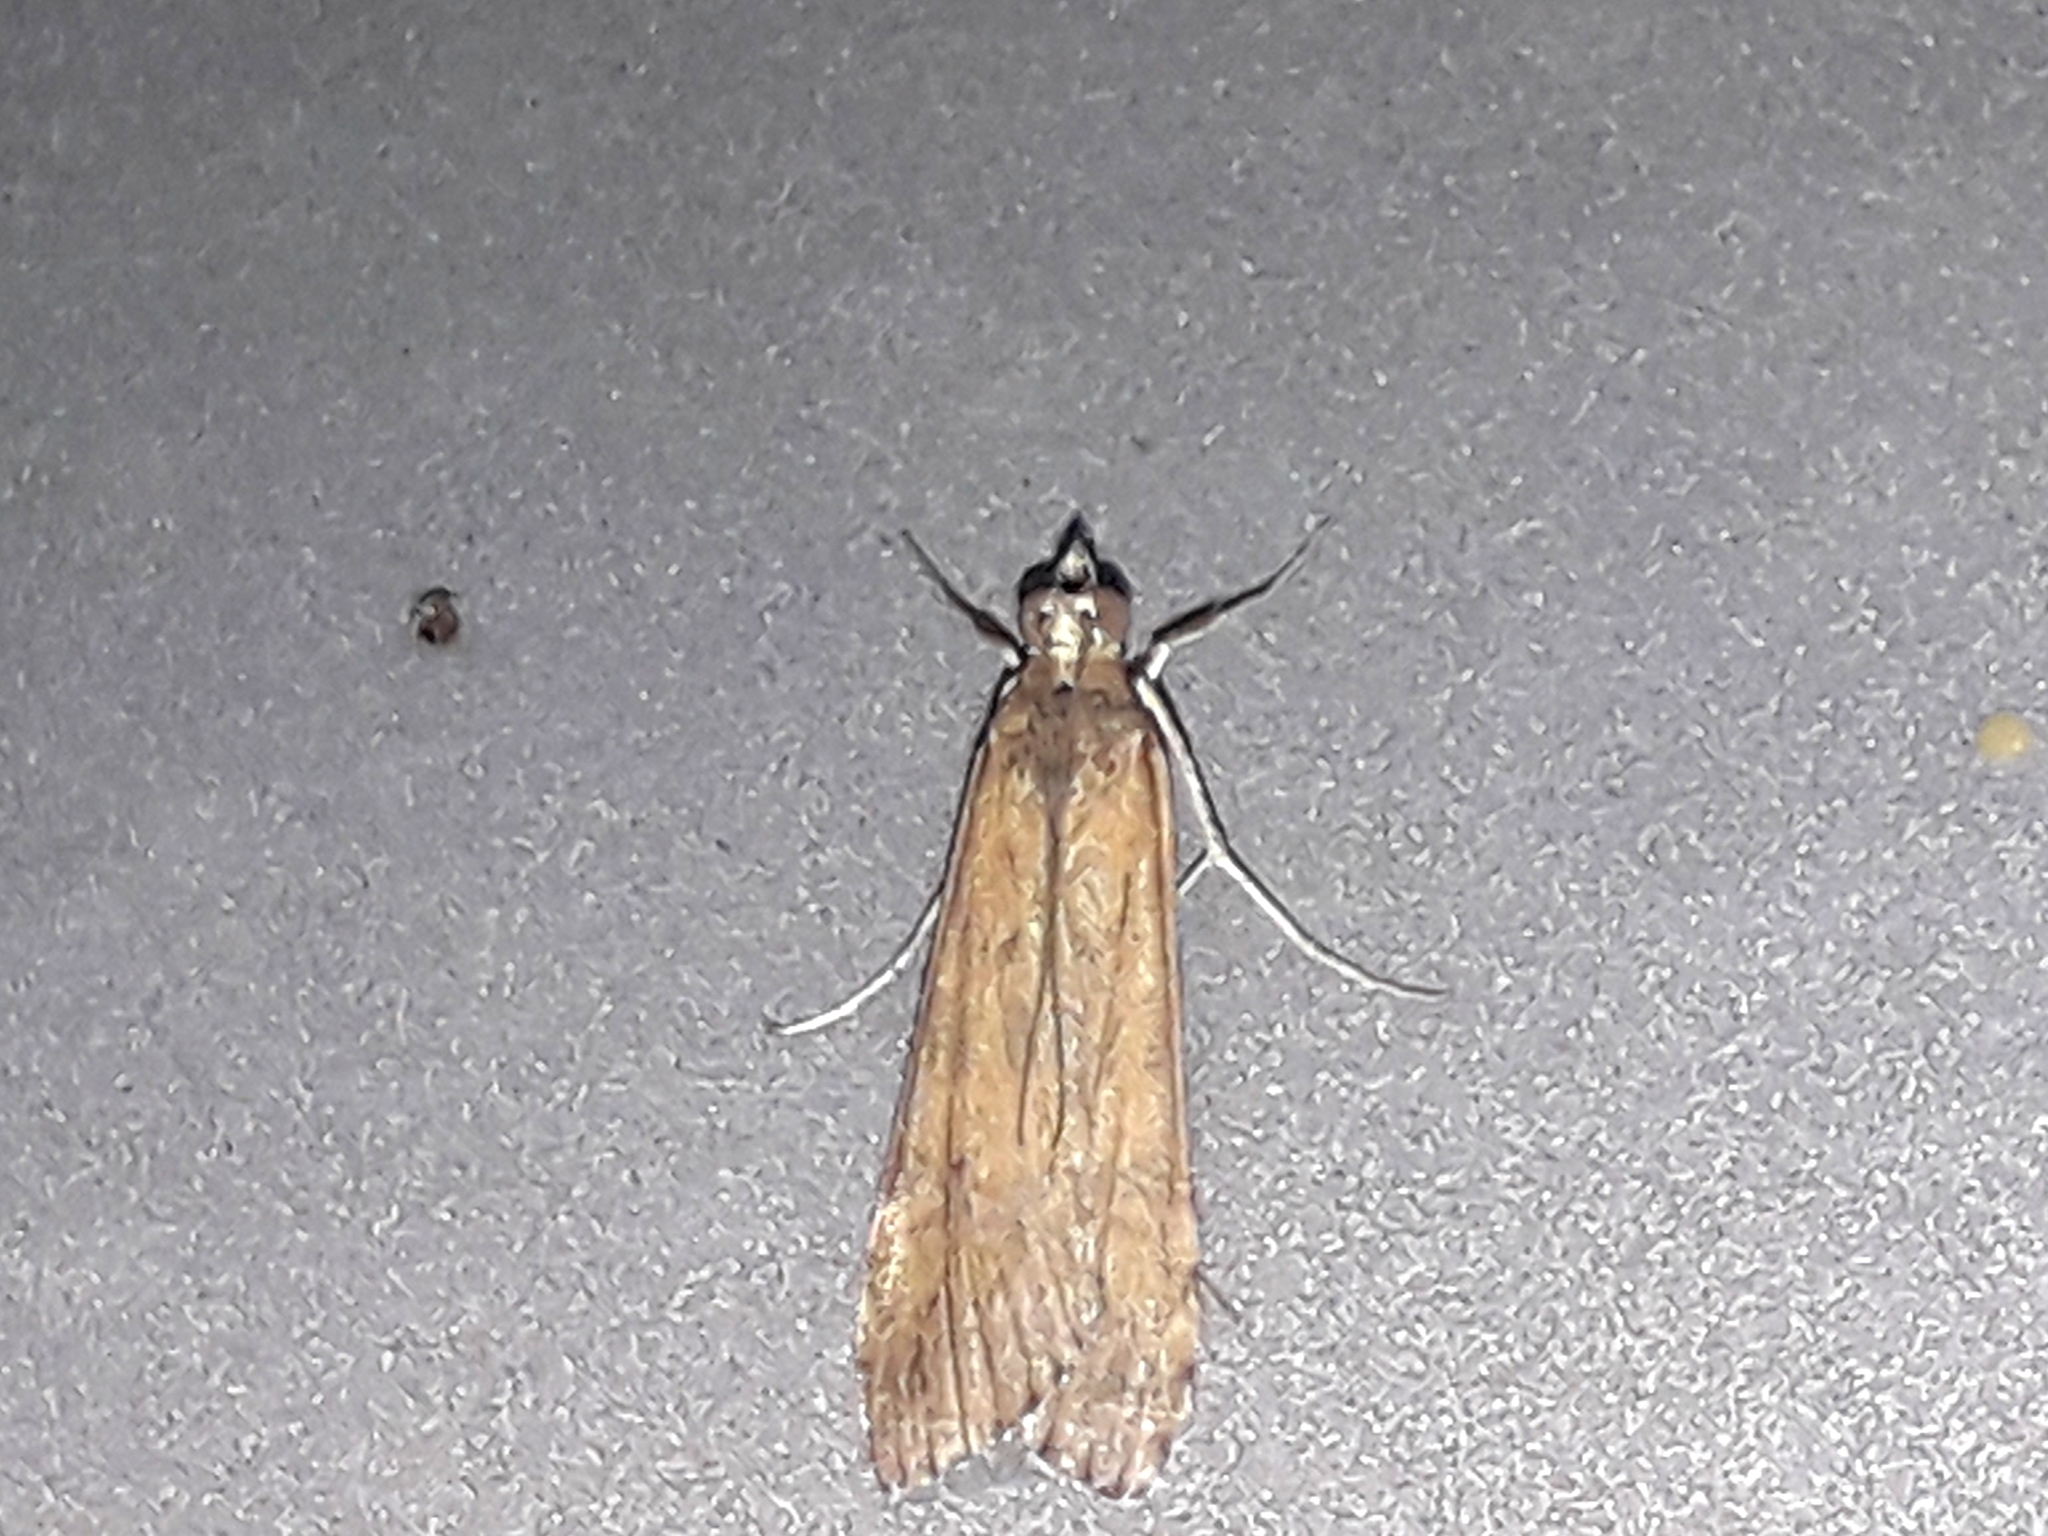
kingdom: Animalia
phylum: Arthropoda
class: Insecta
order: Lepidoptera
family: Crambidae
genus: Nomophila
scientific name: Nomophila noctuella
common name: Rush veneer
